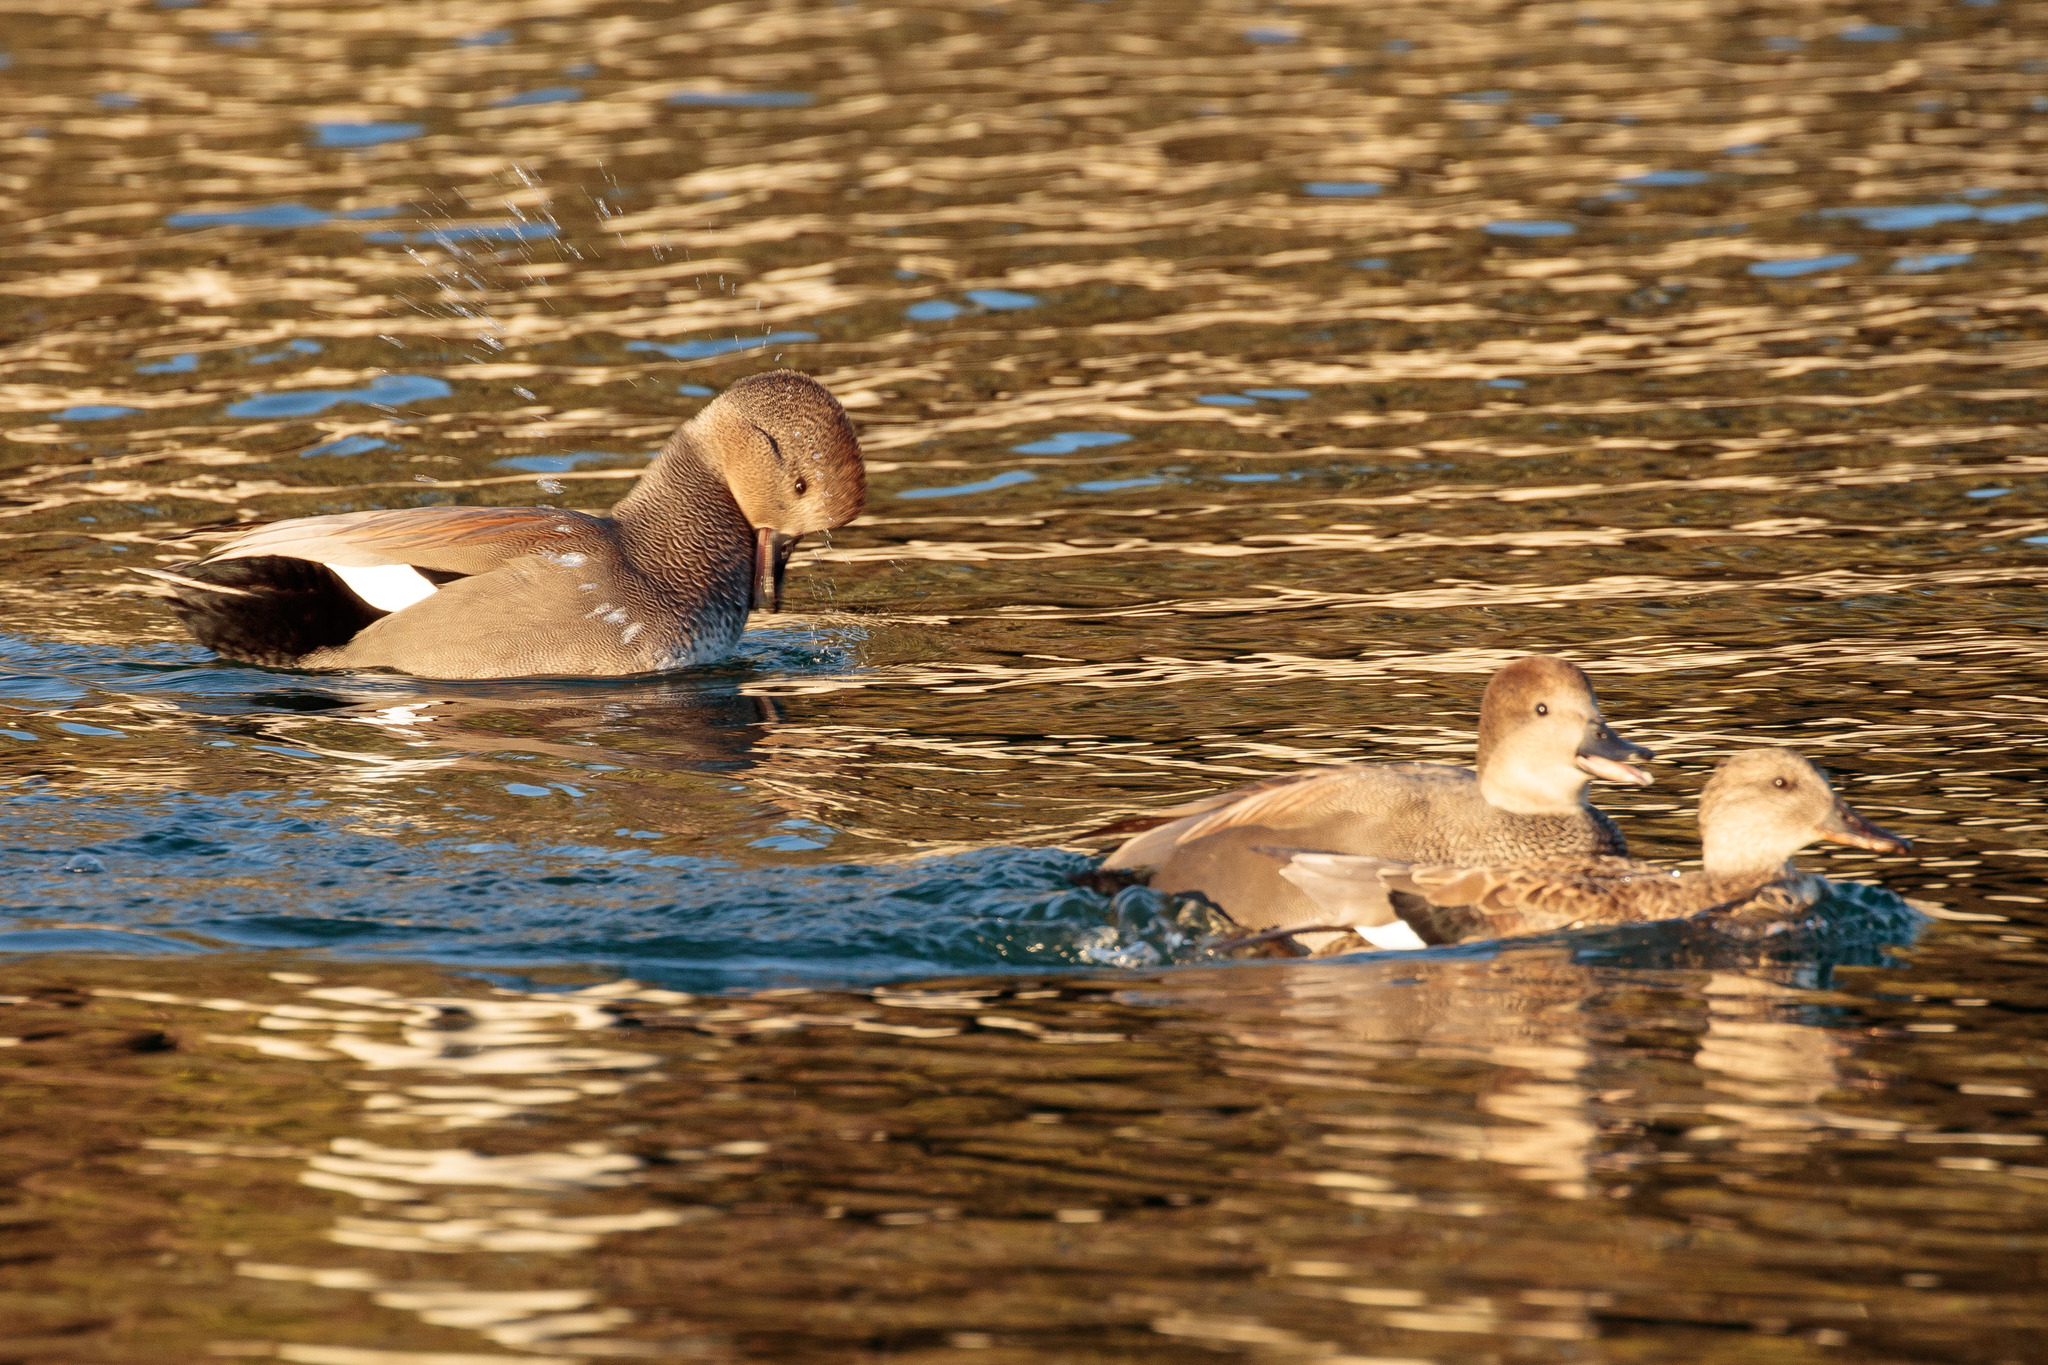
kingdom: Animalia
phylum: Chordata
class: Aves
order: Anseriformes
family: Anatidae
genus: Mareca
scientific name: Mareca strepera
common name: Gadwall
